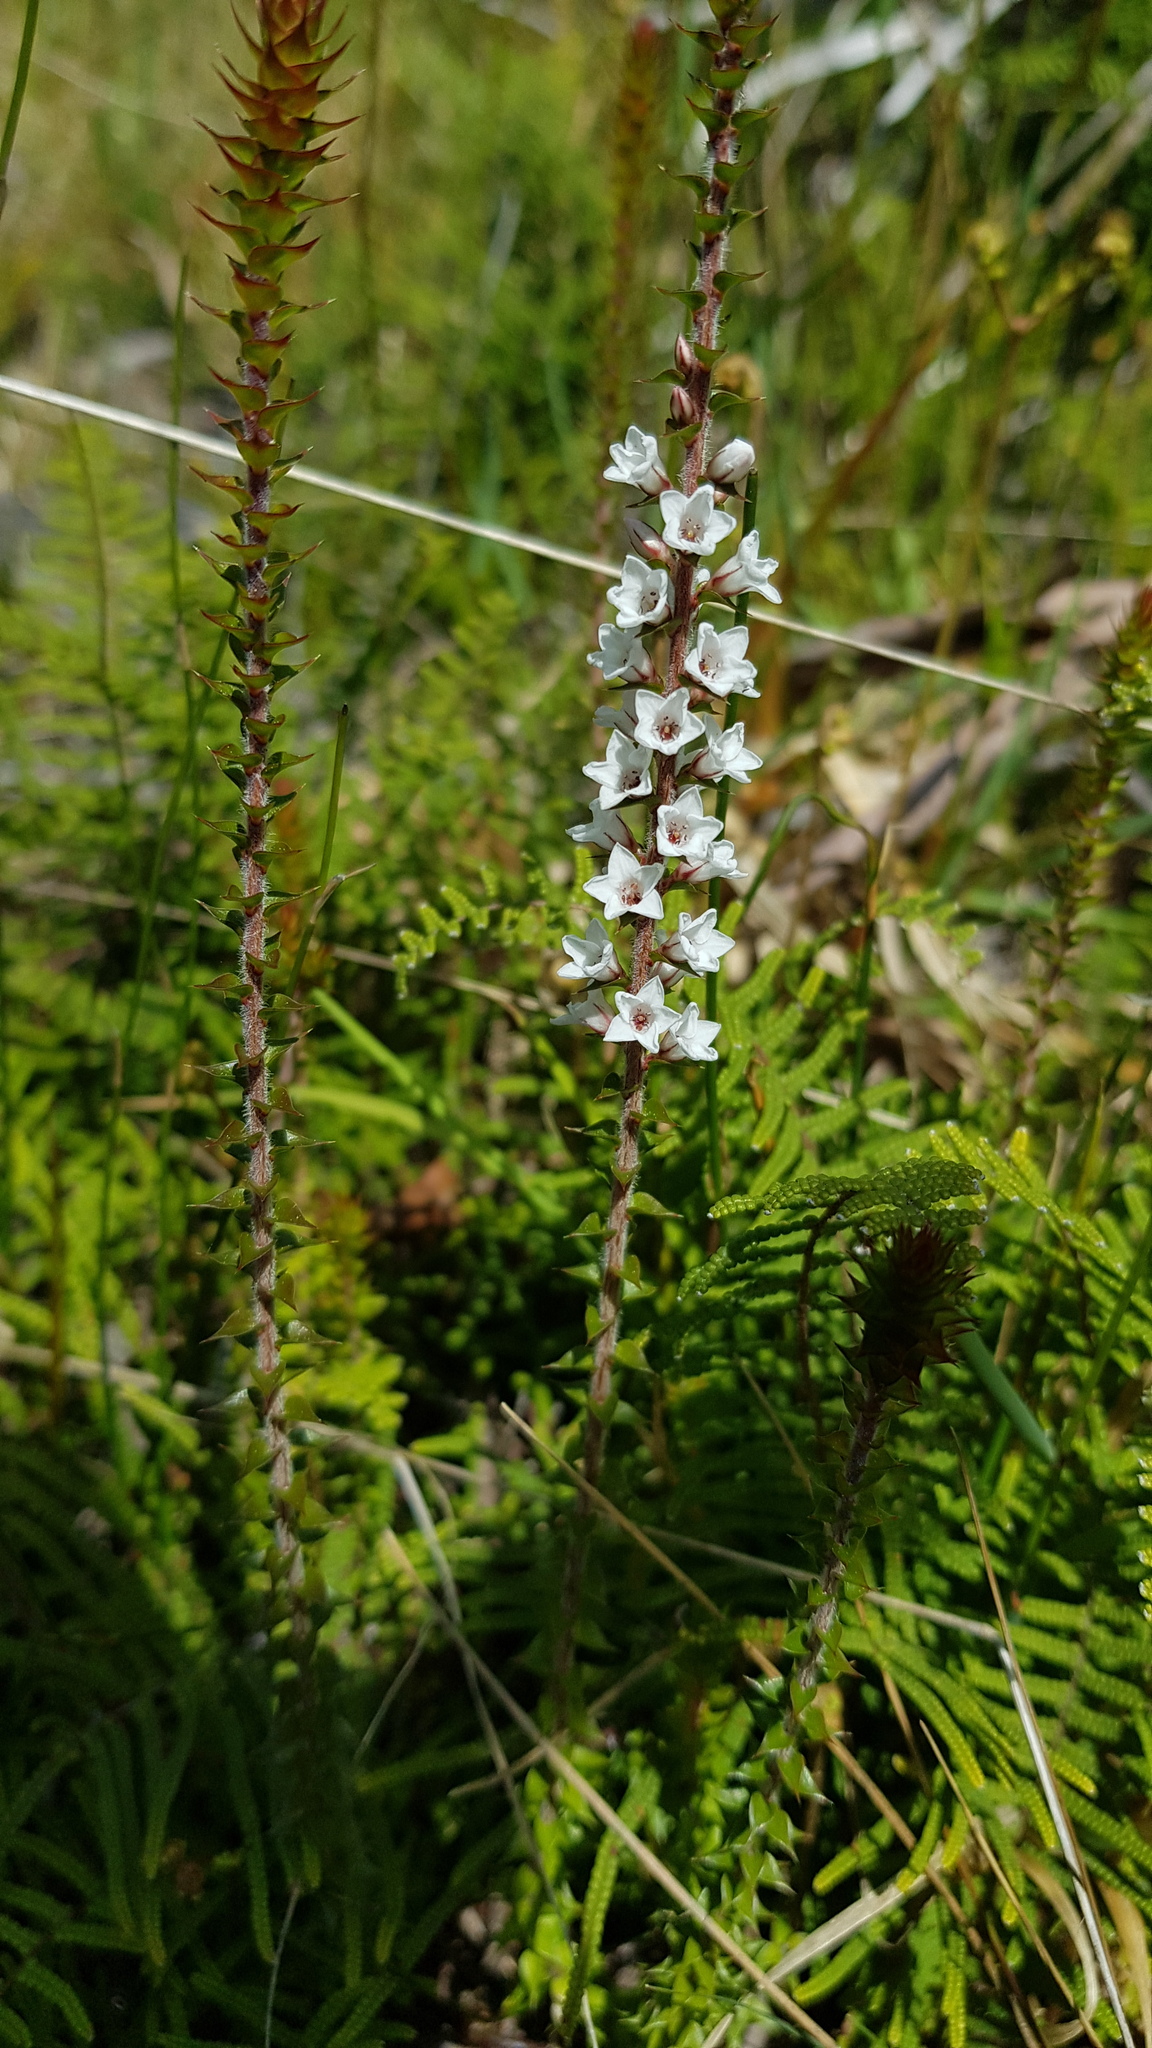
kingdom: Plantae
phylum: Tracheophyta
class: Magnoliopsida
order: Ericales
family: Ericaceae
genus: Epacris
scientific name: Epacris gunnii
